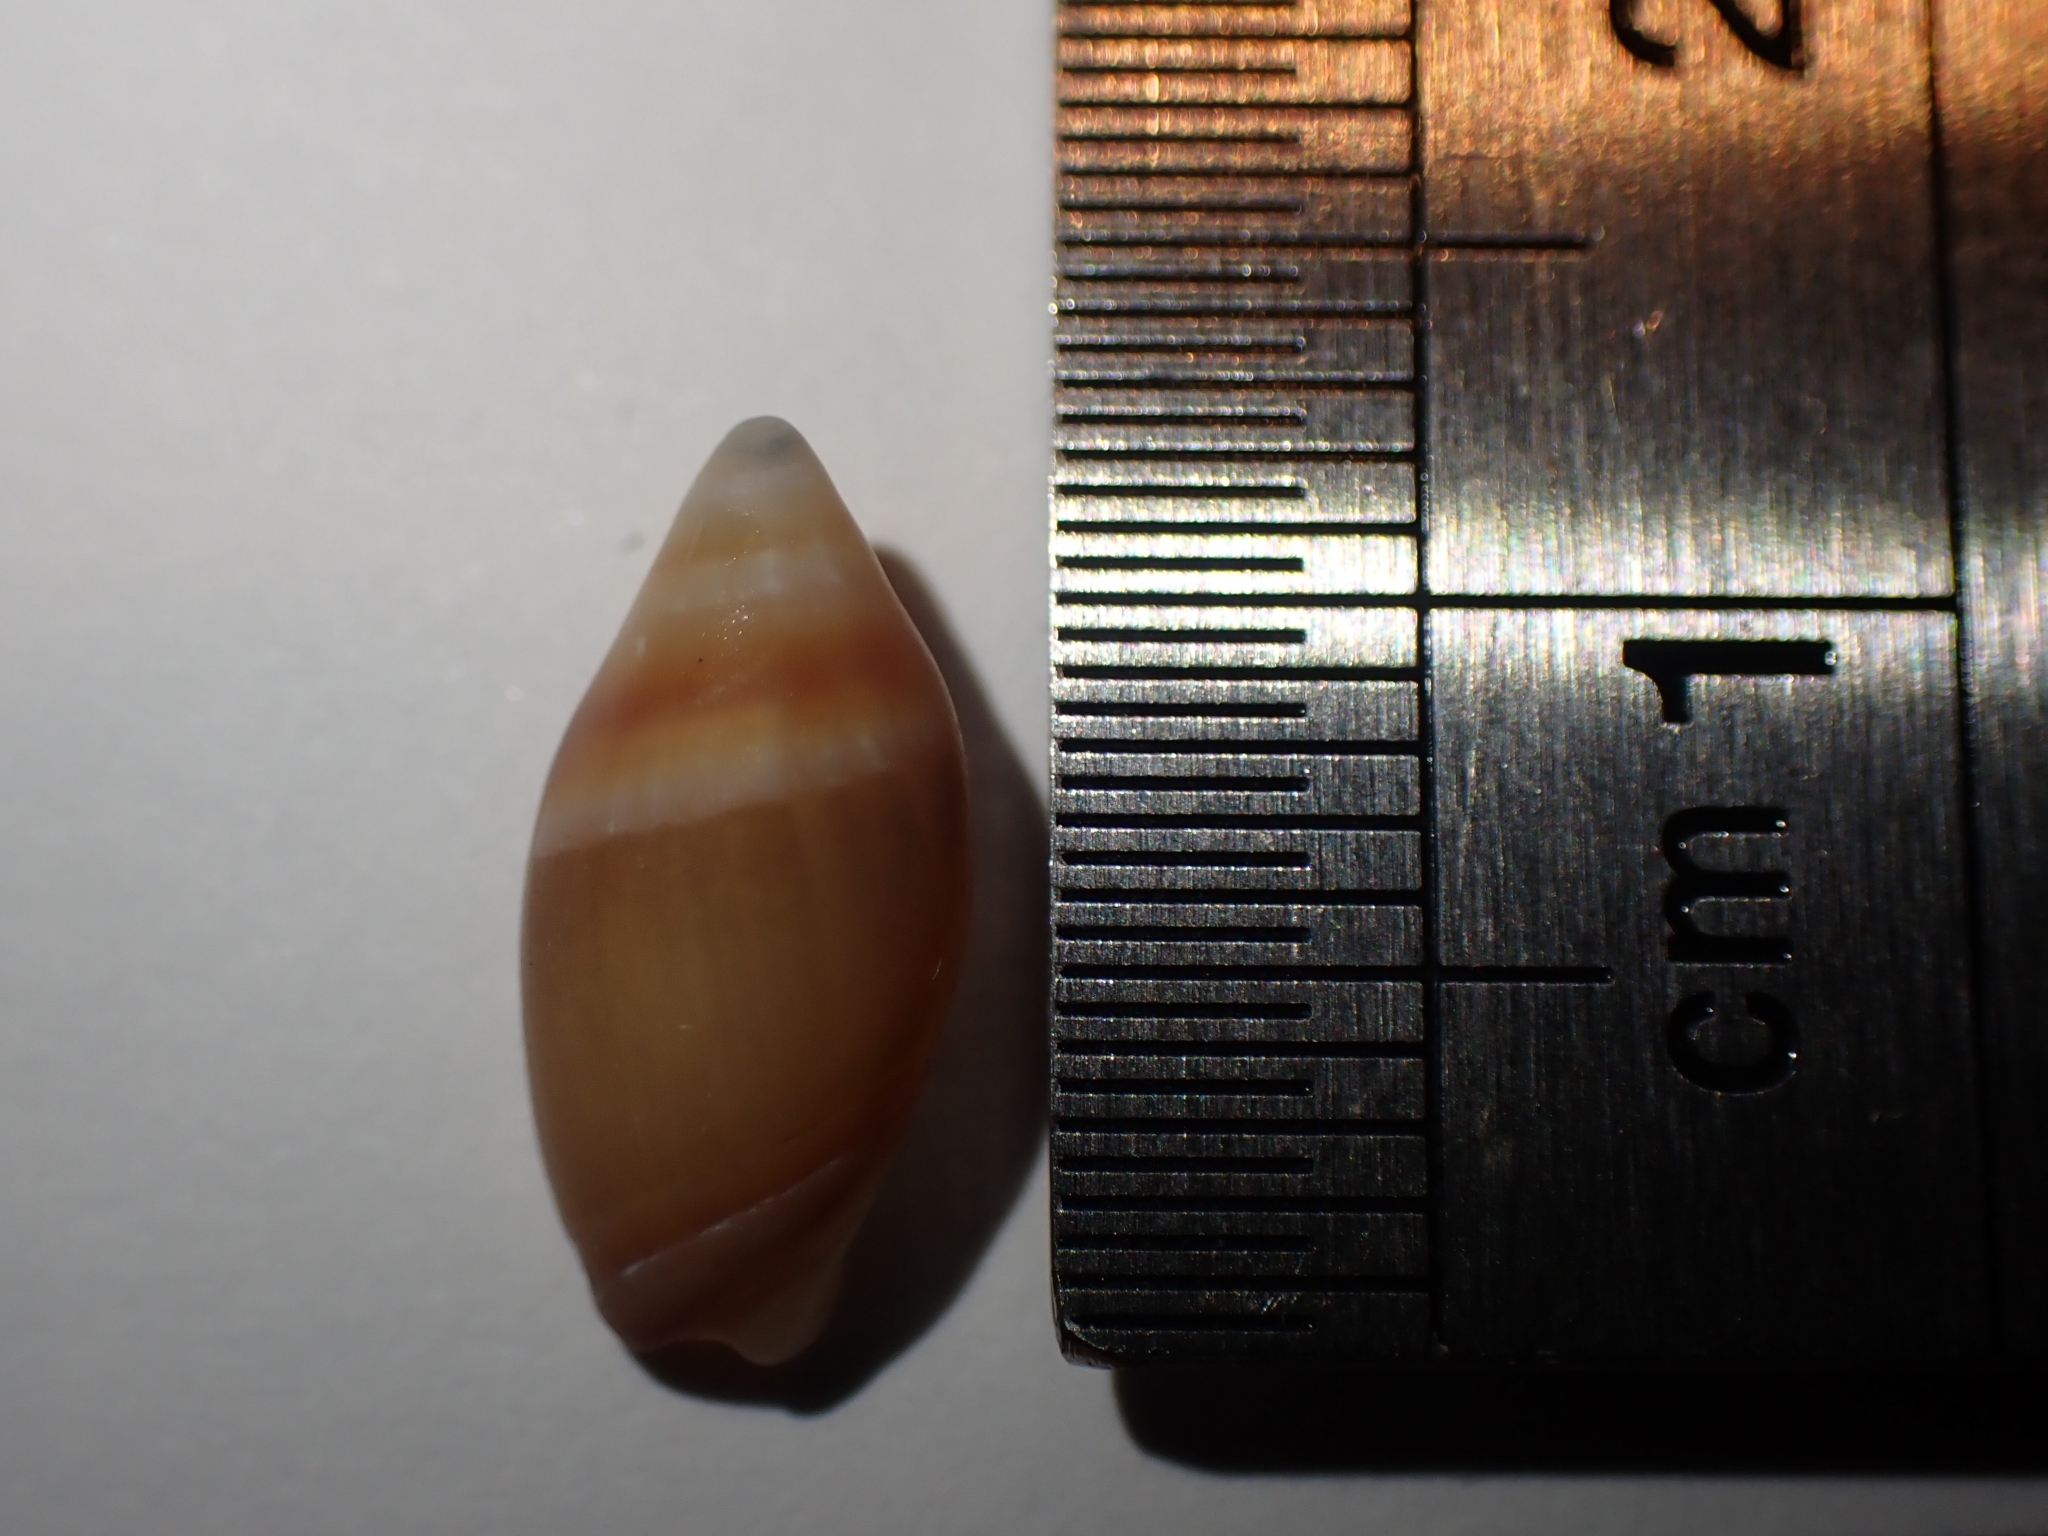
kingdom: Animalia
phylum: Mollusca
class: Gastropoda
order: Neogastropoda
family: Ancillariidae
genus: Amalda
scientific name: Amalda australis
